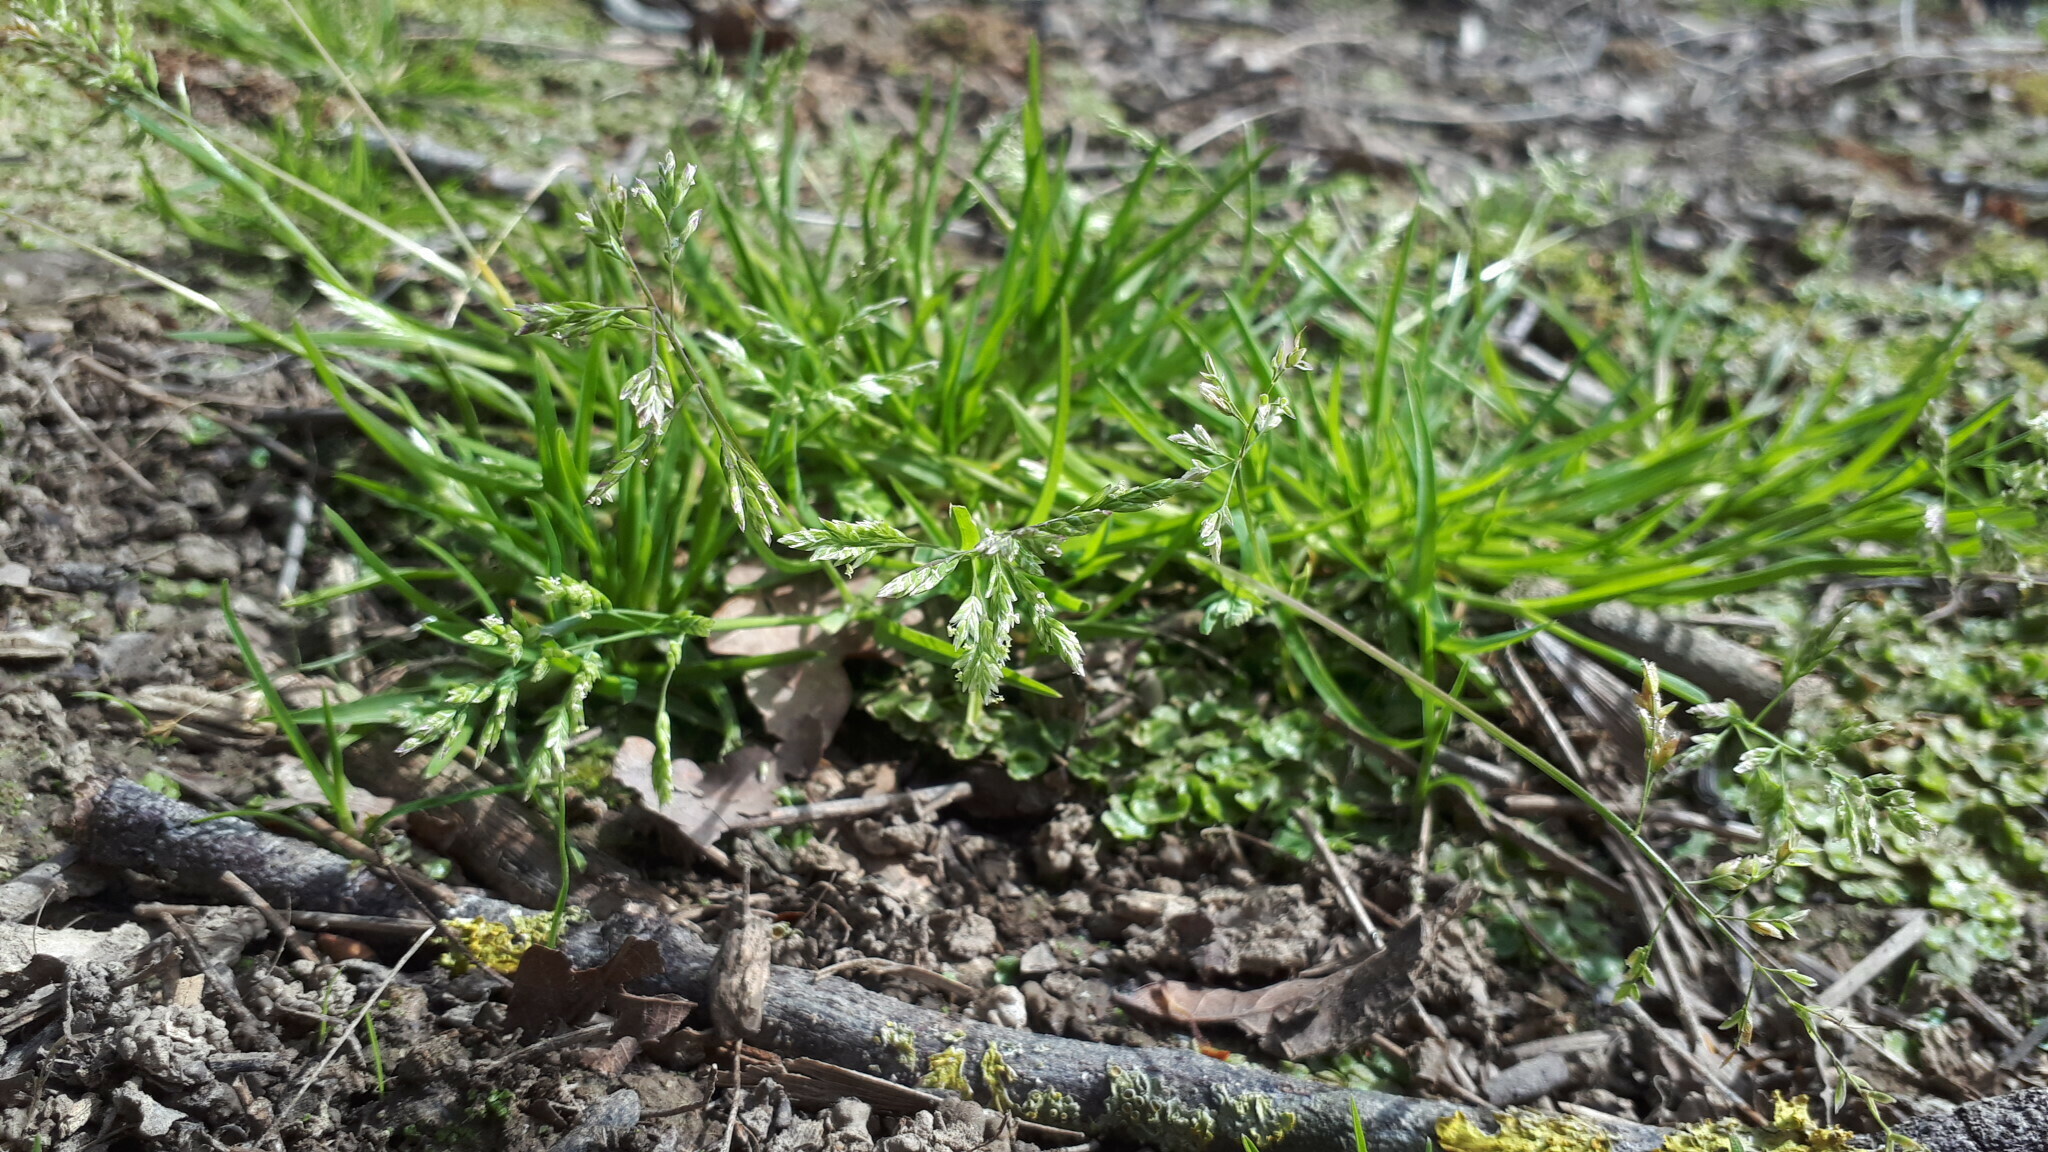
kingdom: Plantae
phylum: Tracheophyta
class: Liliopsida
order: Poales
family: Poaceae
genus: Poa
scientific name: Poa annua
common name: Annual bluegrass
